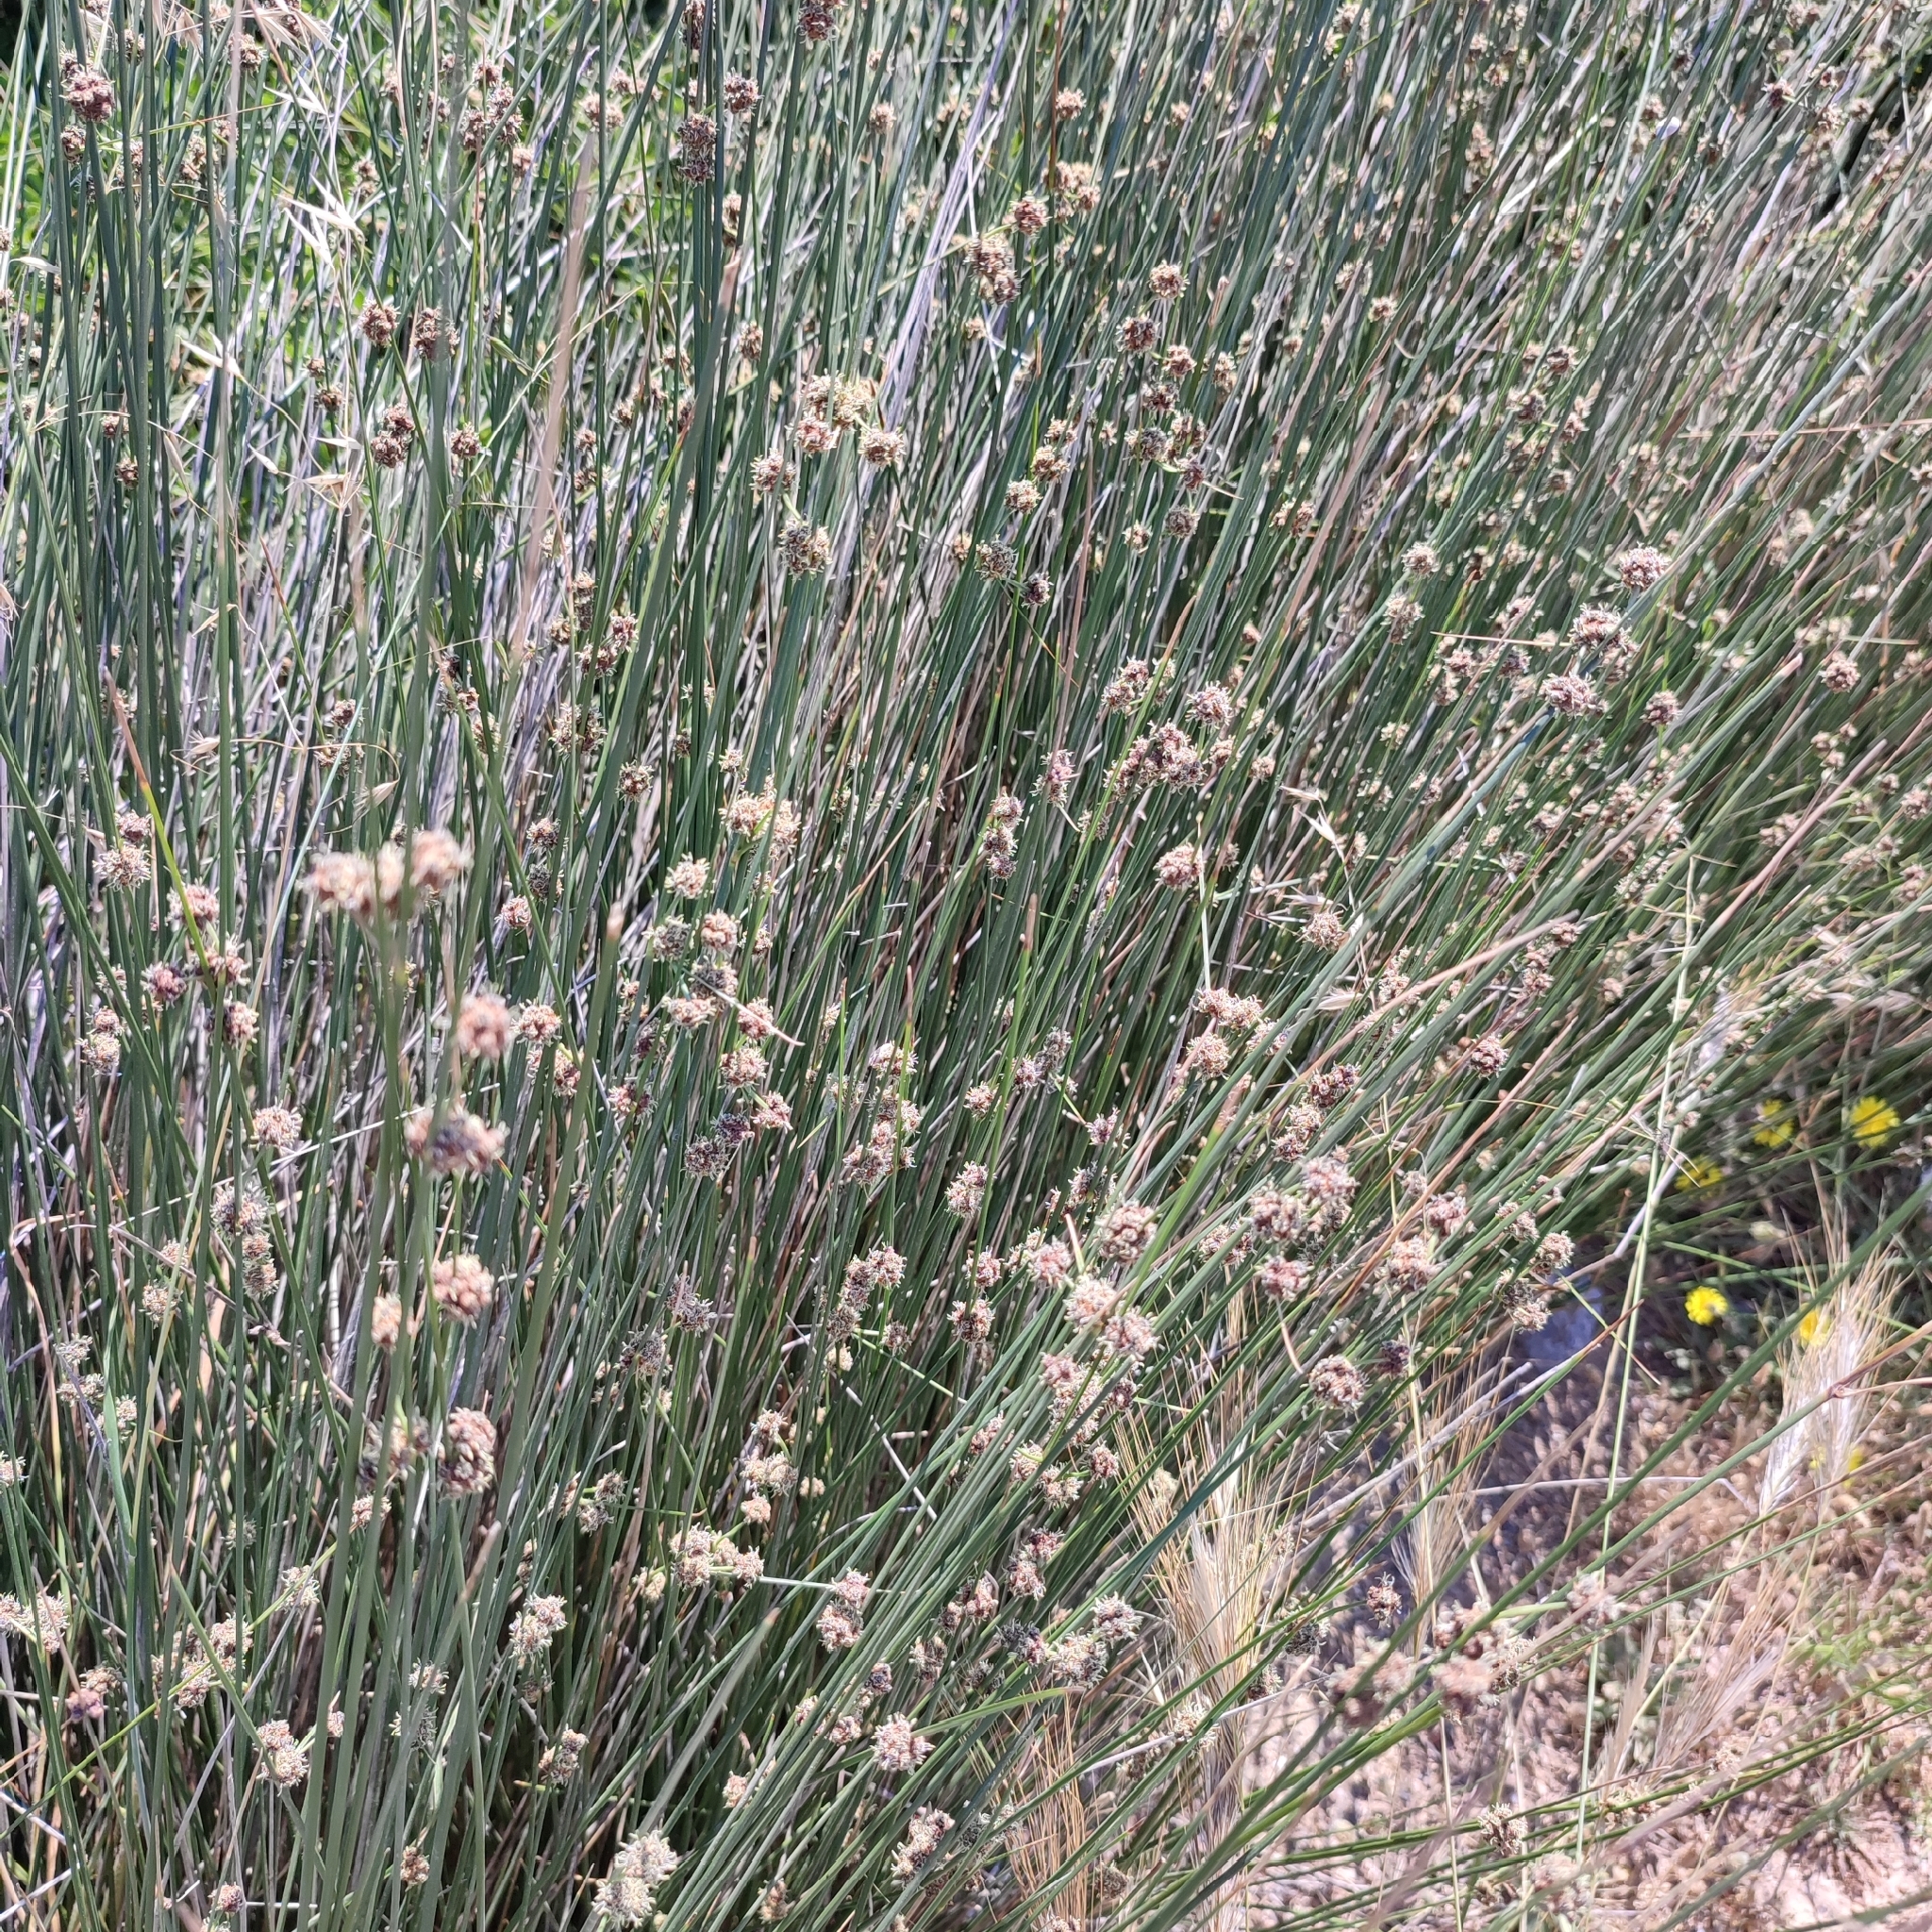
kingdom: Plantae
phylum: Tracheophyta
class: Liliopsida
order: Poales
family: Cyperaceae
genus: Scirpoides
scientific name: Scirpoides holoschoenus
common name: Round-headed club-rush
